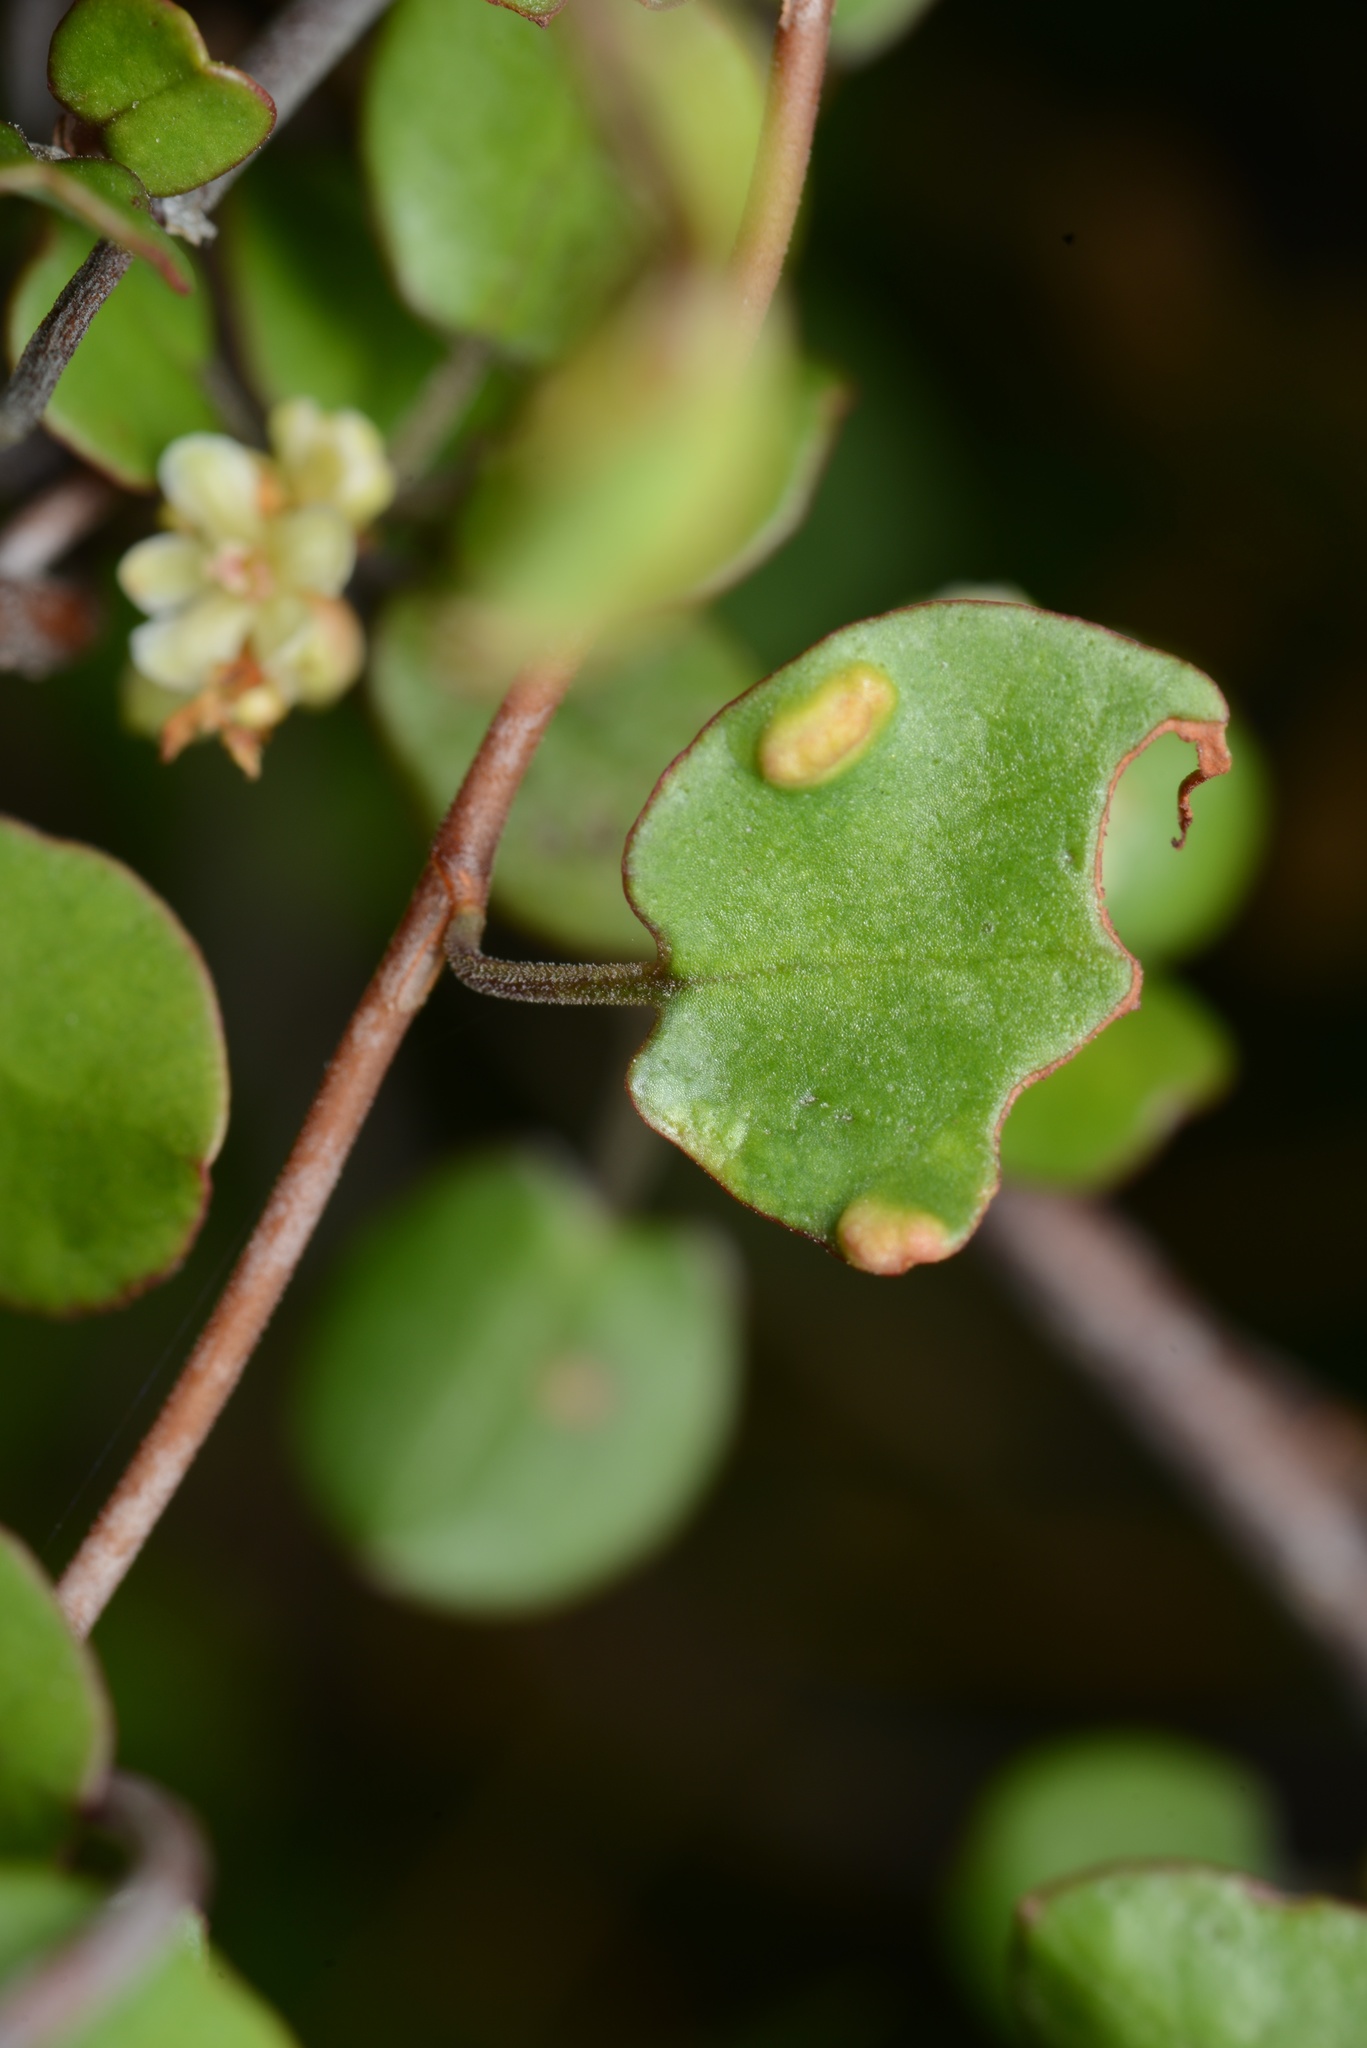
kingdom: Animalia
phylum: Arthropoda
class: Arachnida
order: Trombidiformes
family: Eriophyidae
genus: Aceria
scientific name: Aceria lamii
